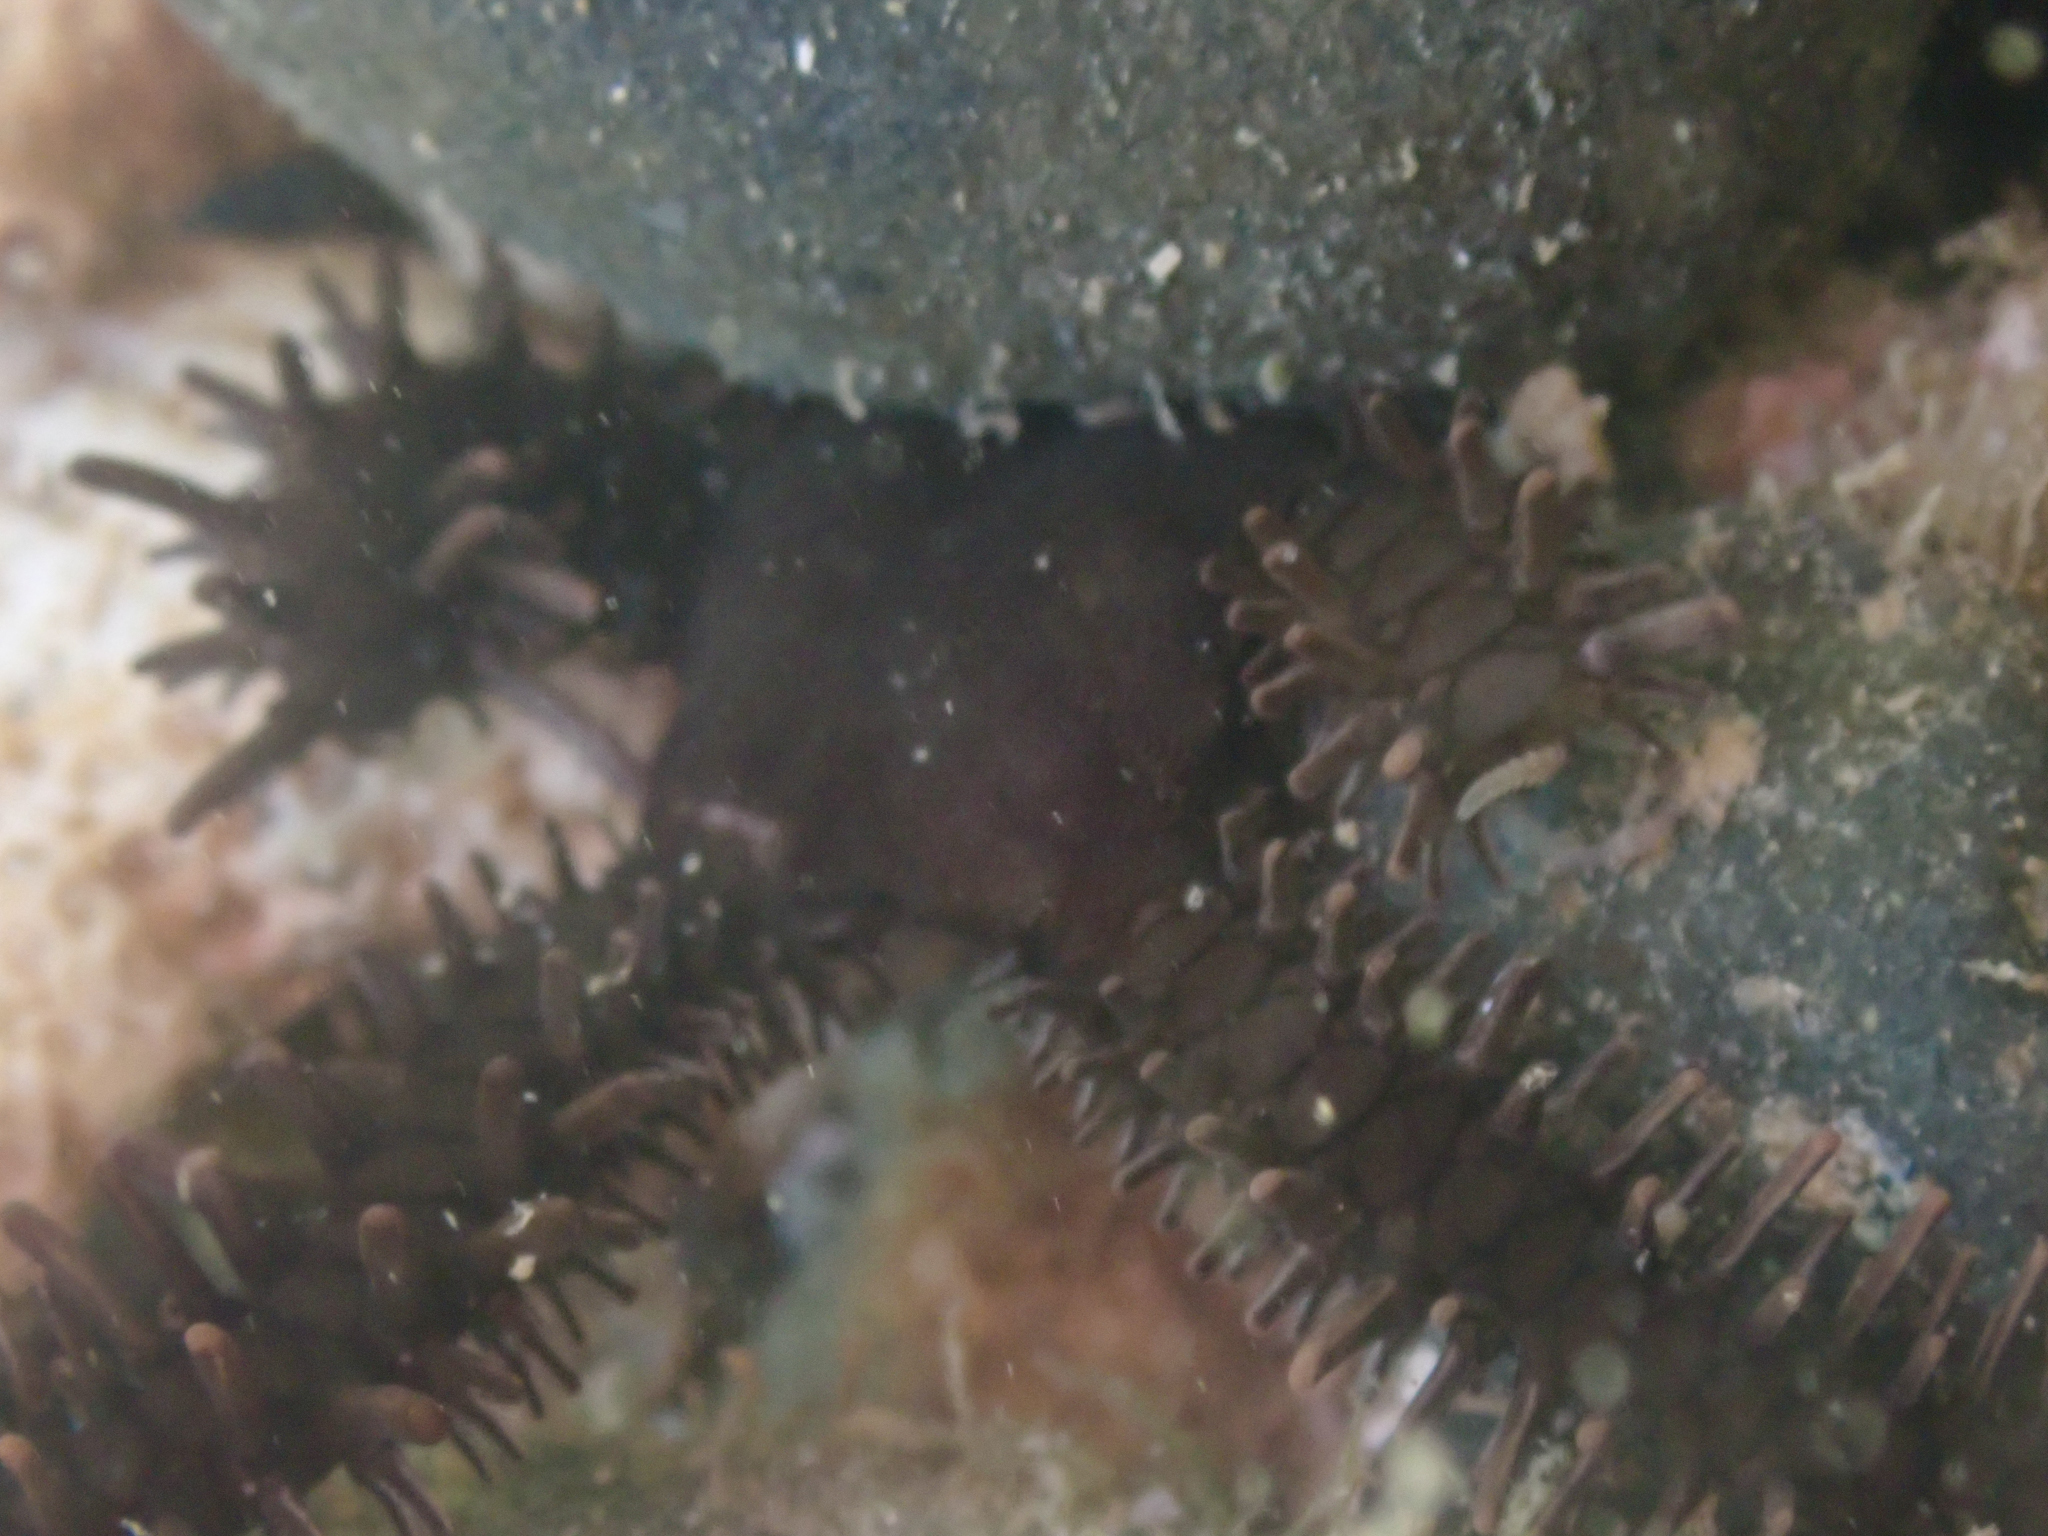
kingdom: Animalia
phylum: Echinodermata
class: Ophiuroidea
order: Ophiacanthida
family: Ophiocomidae
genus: Ophiocoma
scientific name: Ophiocoma aethiops
